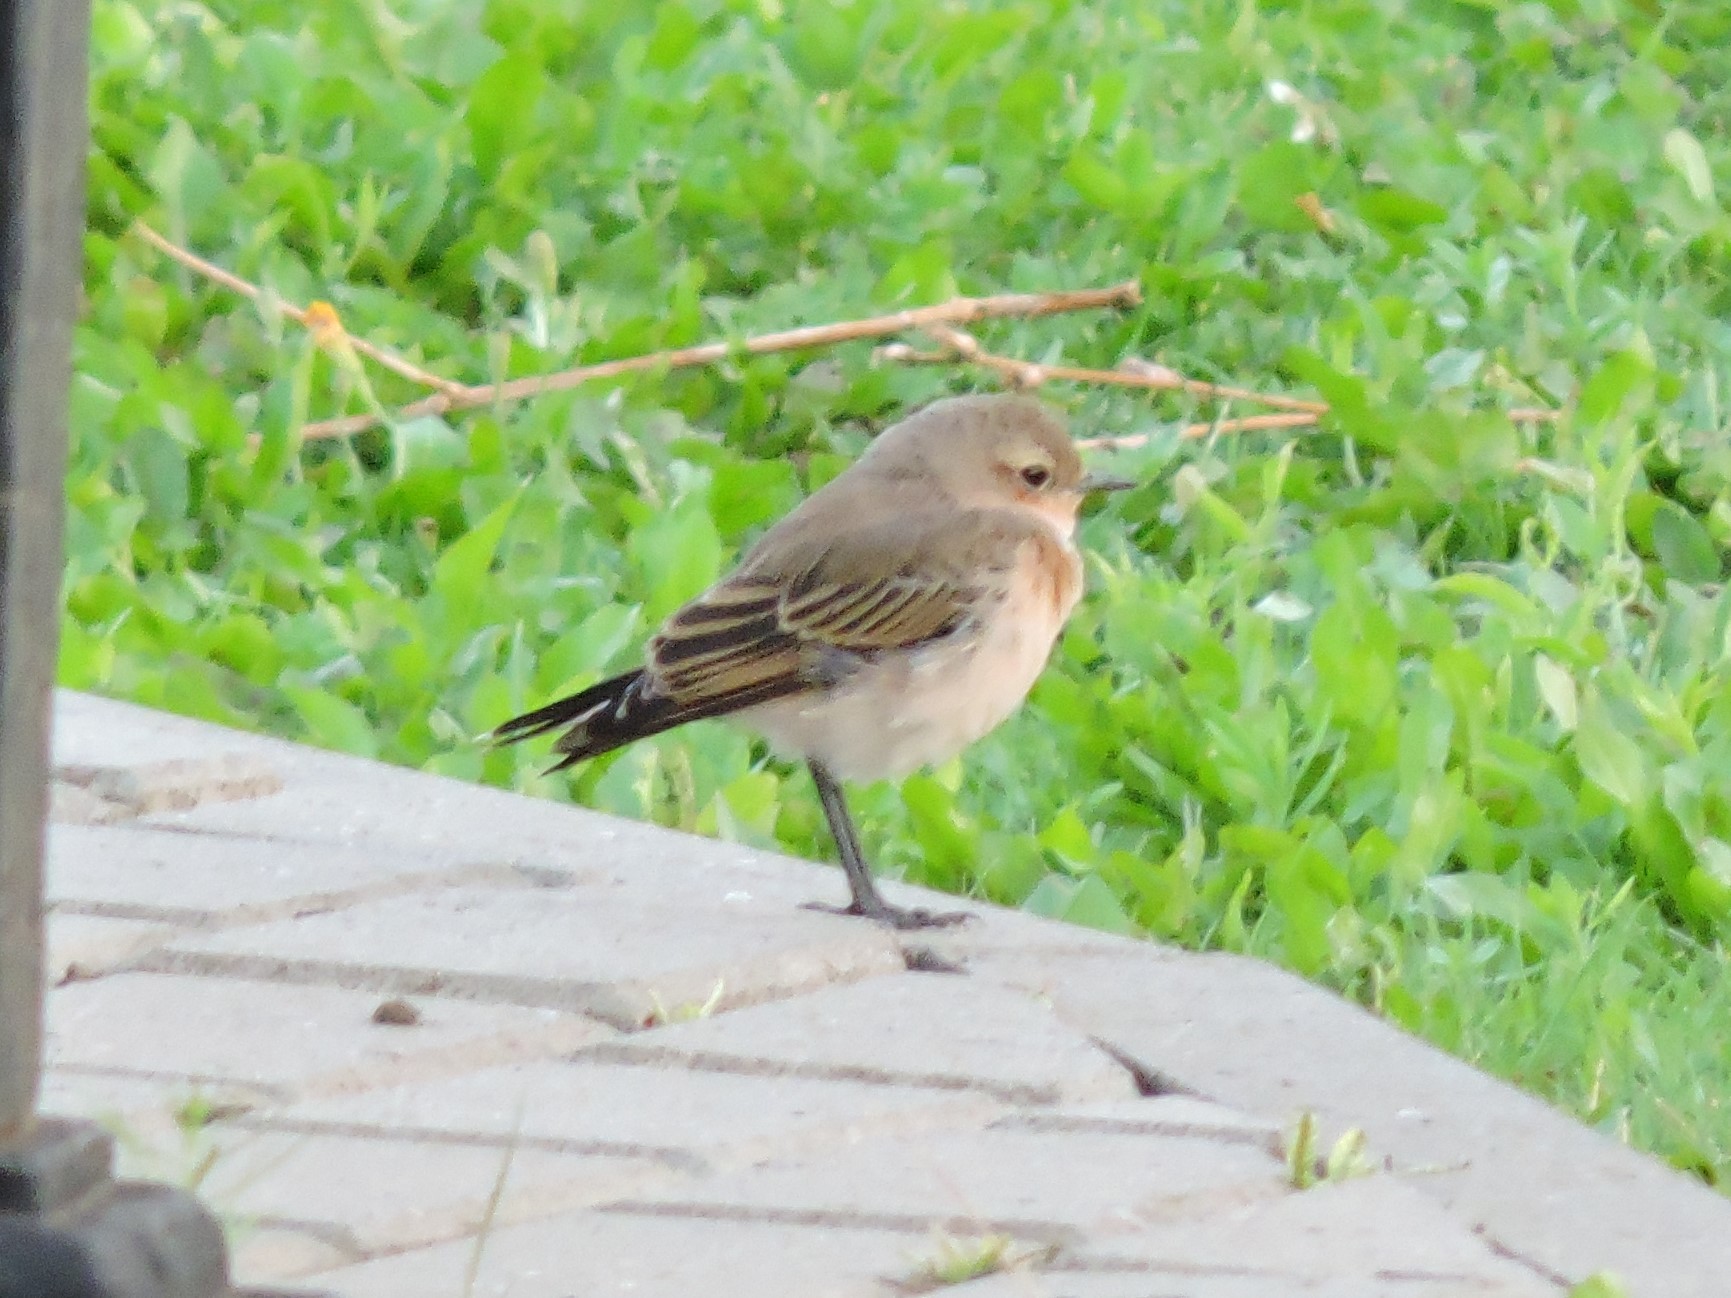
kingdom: Animalia
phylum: Chordata
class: Aves
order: Passeriformes
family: Muscicapidae
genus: Oenanthe
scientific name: Oenanthe oenanthe
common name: Northern wheatear
